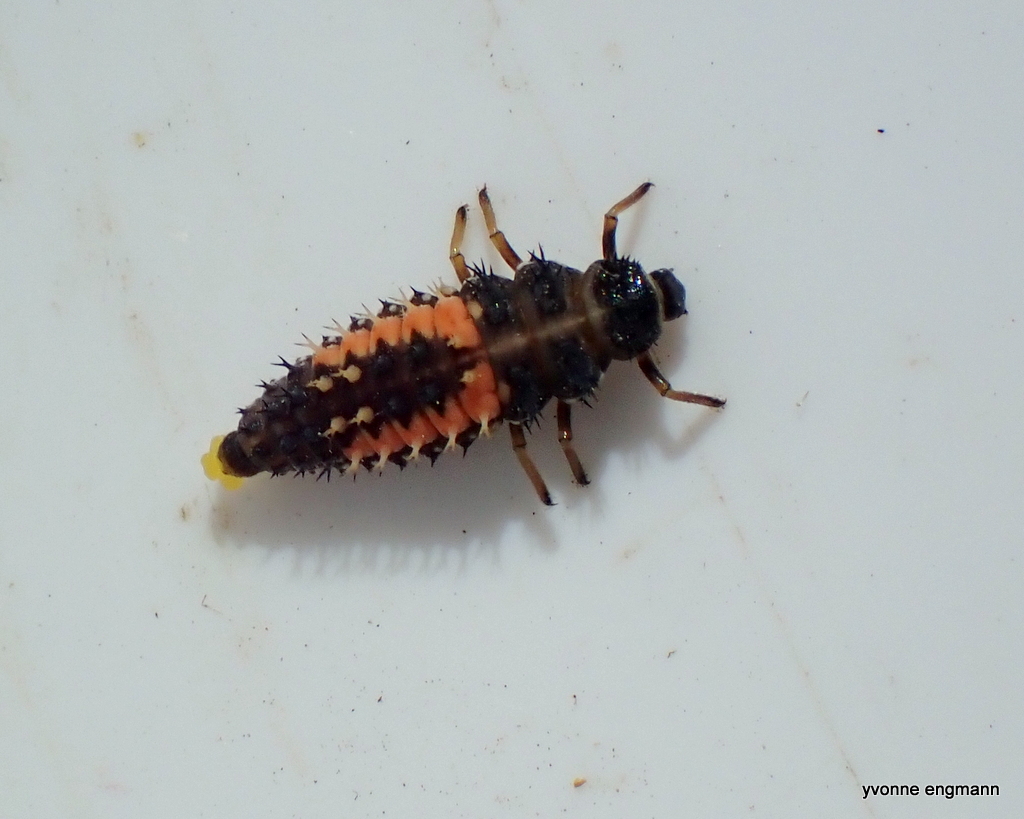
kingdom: Animalia
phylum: Arthropoda
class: Insecta
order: Coleoptera
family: Coccinellidae
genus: Harmonia
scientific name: Harmonia axyridis
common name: Harlequin ladybird
